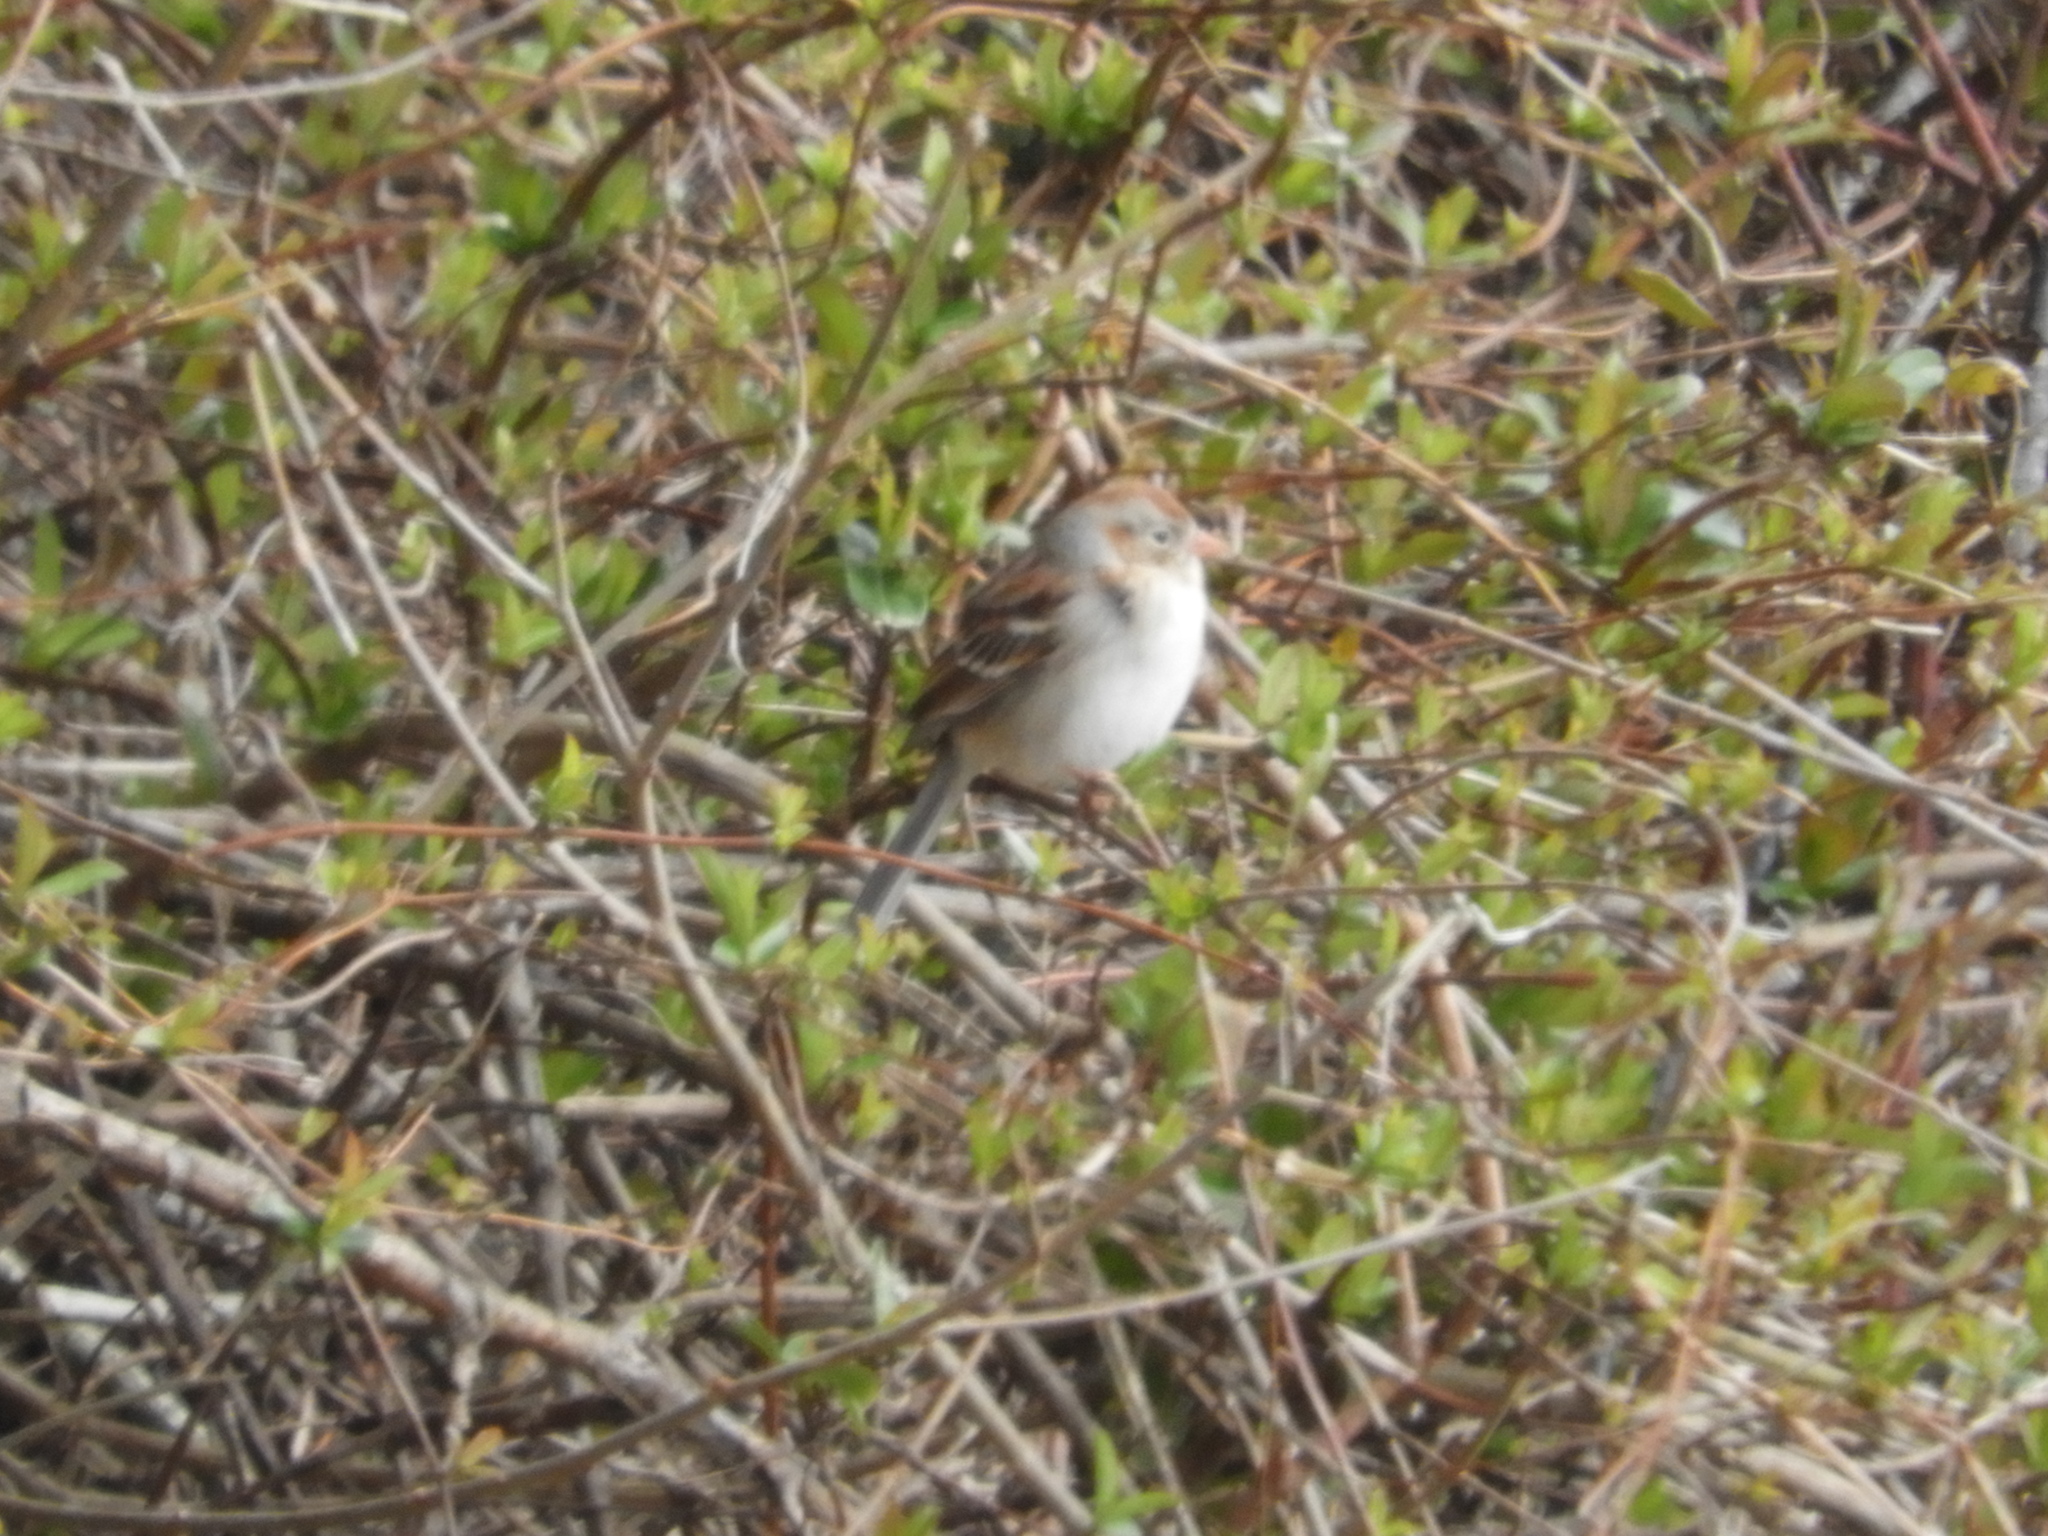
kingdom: Animalia
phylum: Chordata
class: Aves
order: Passeriformes
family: Passerellidae
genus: Spizella
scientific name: Spizella pusilla
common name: Field sparrow
